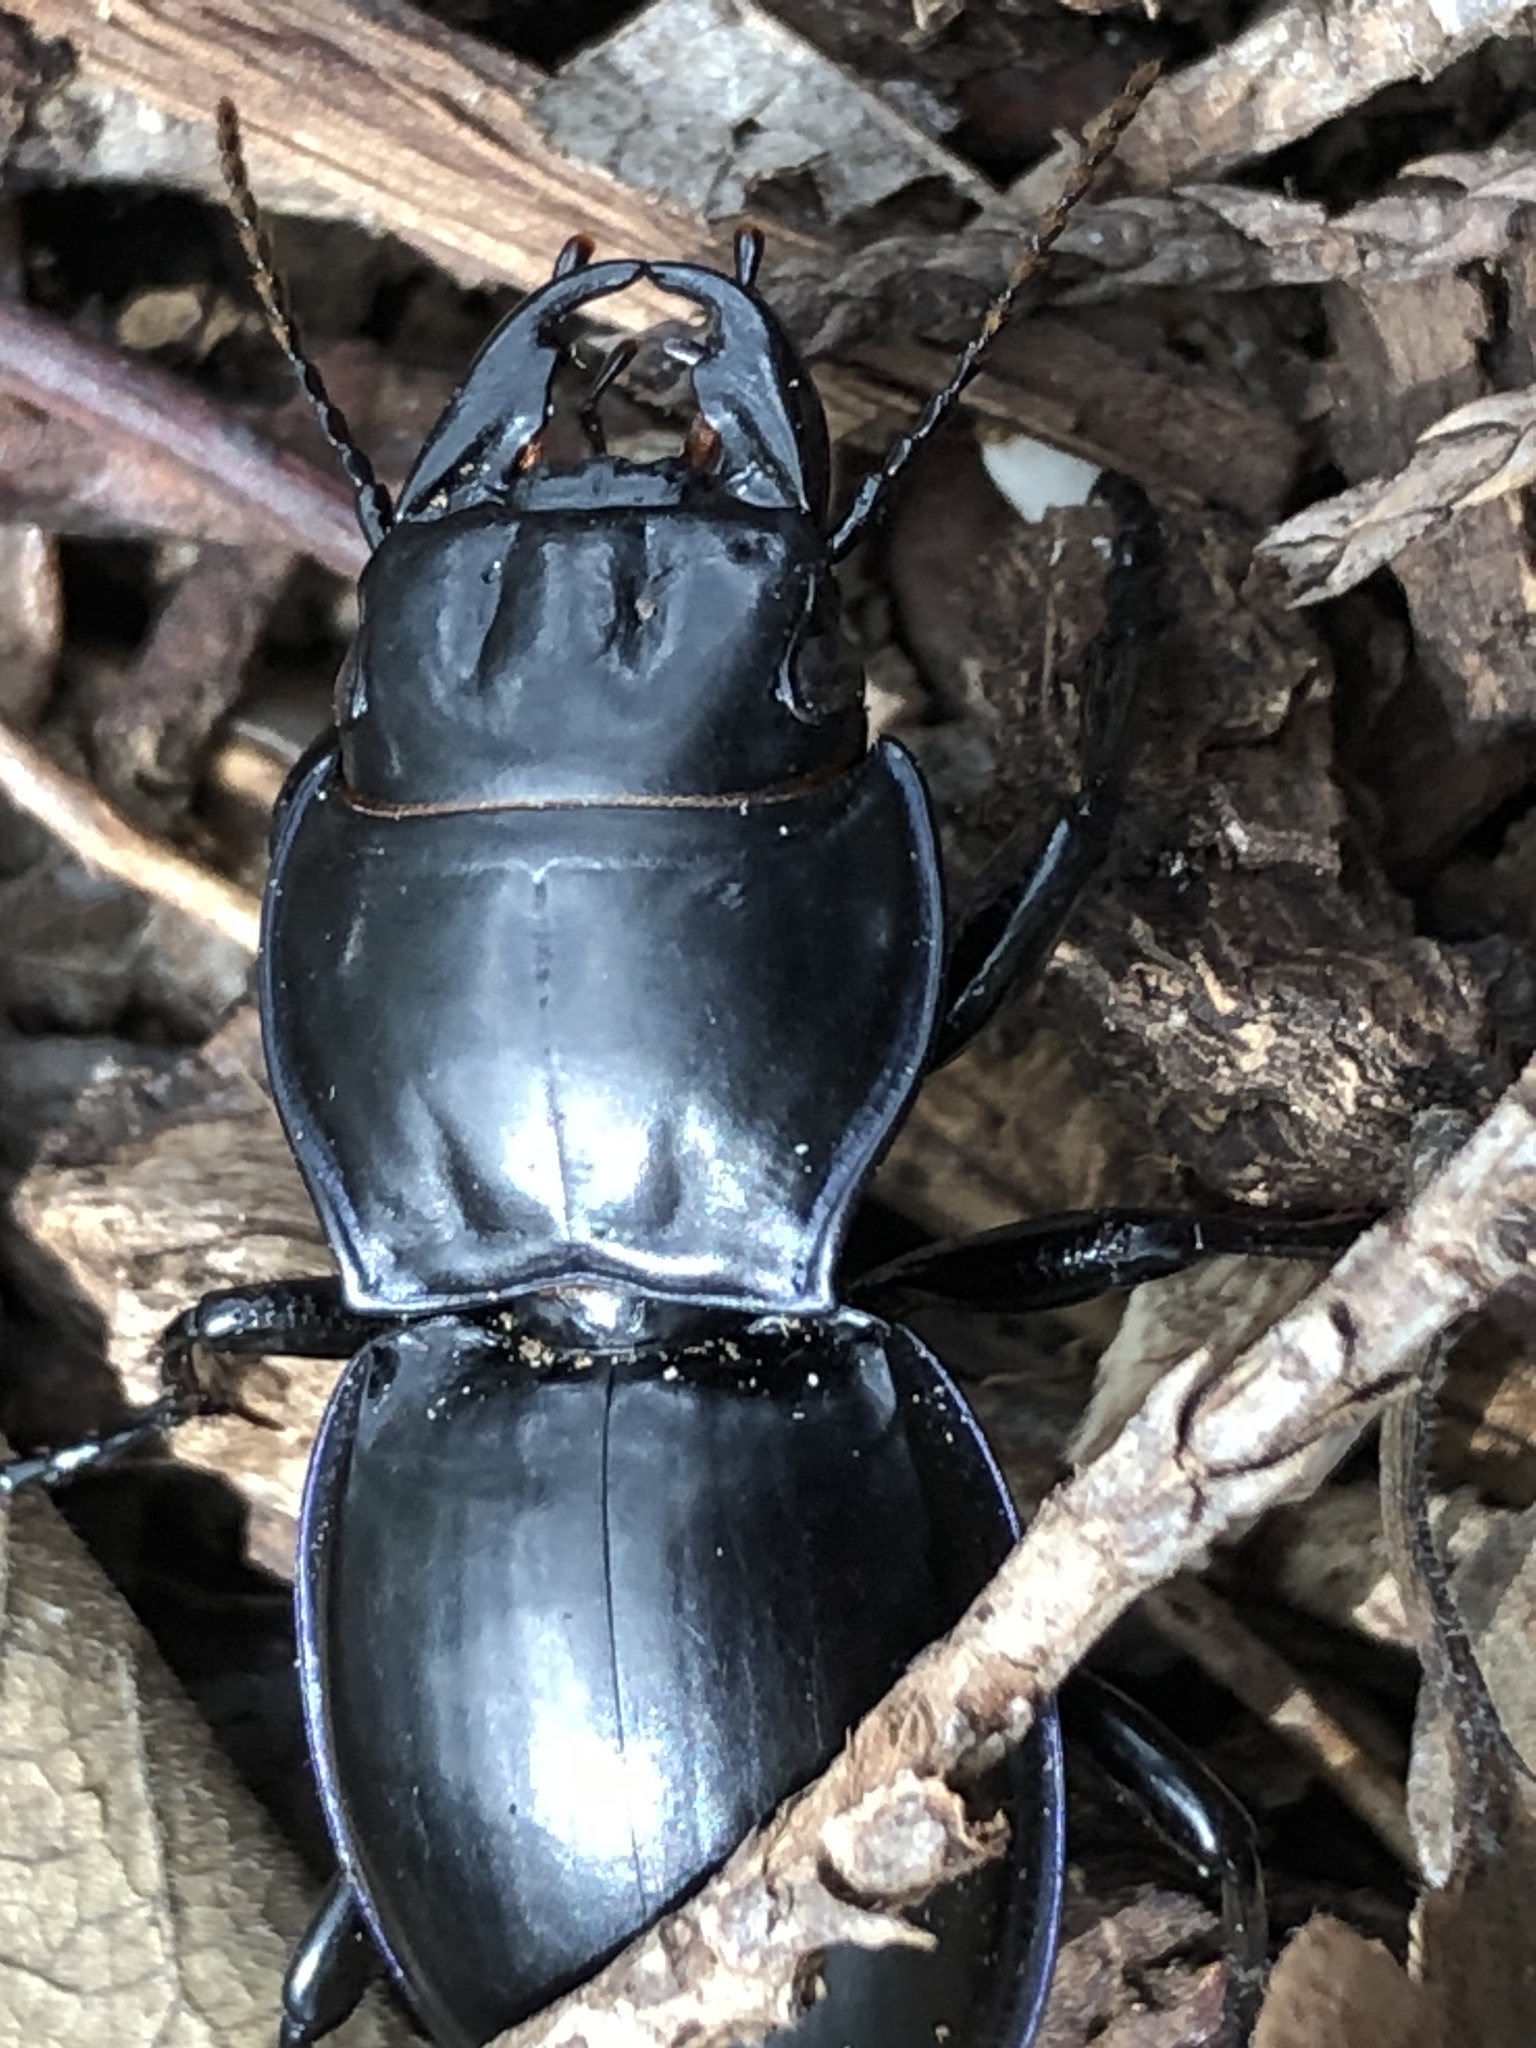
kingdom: Animalia
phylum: Arthropoda
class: Insecta
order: Coleoptera
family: Carabidae
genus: Pasimachus
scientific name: Pasimachus californicus
